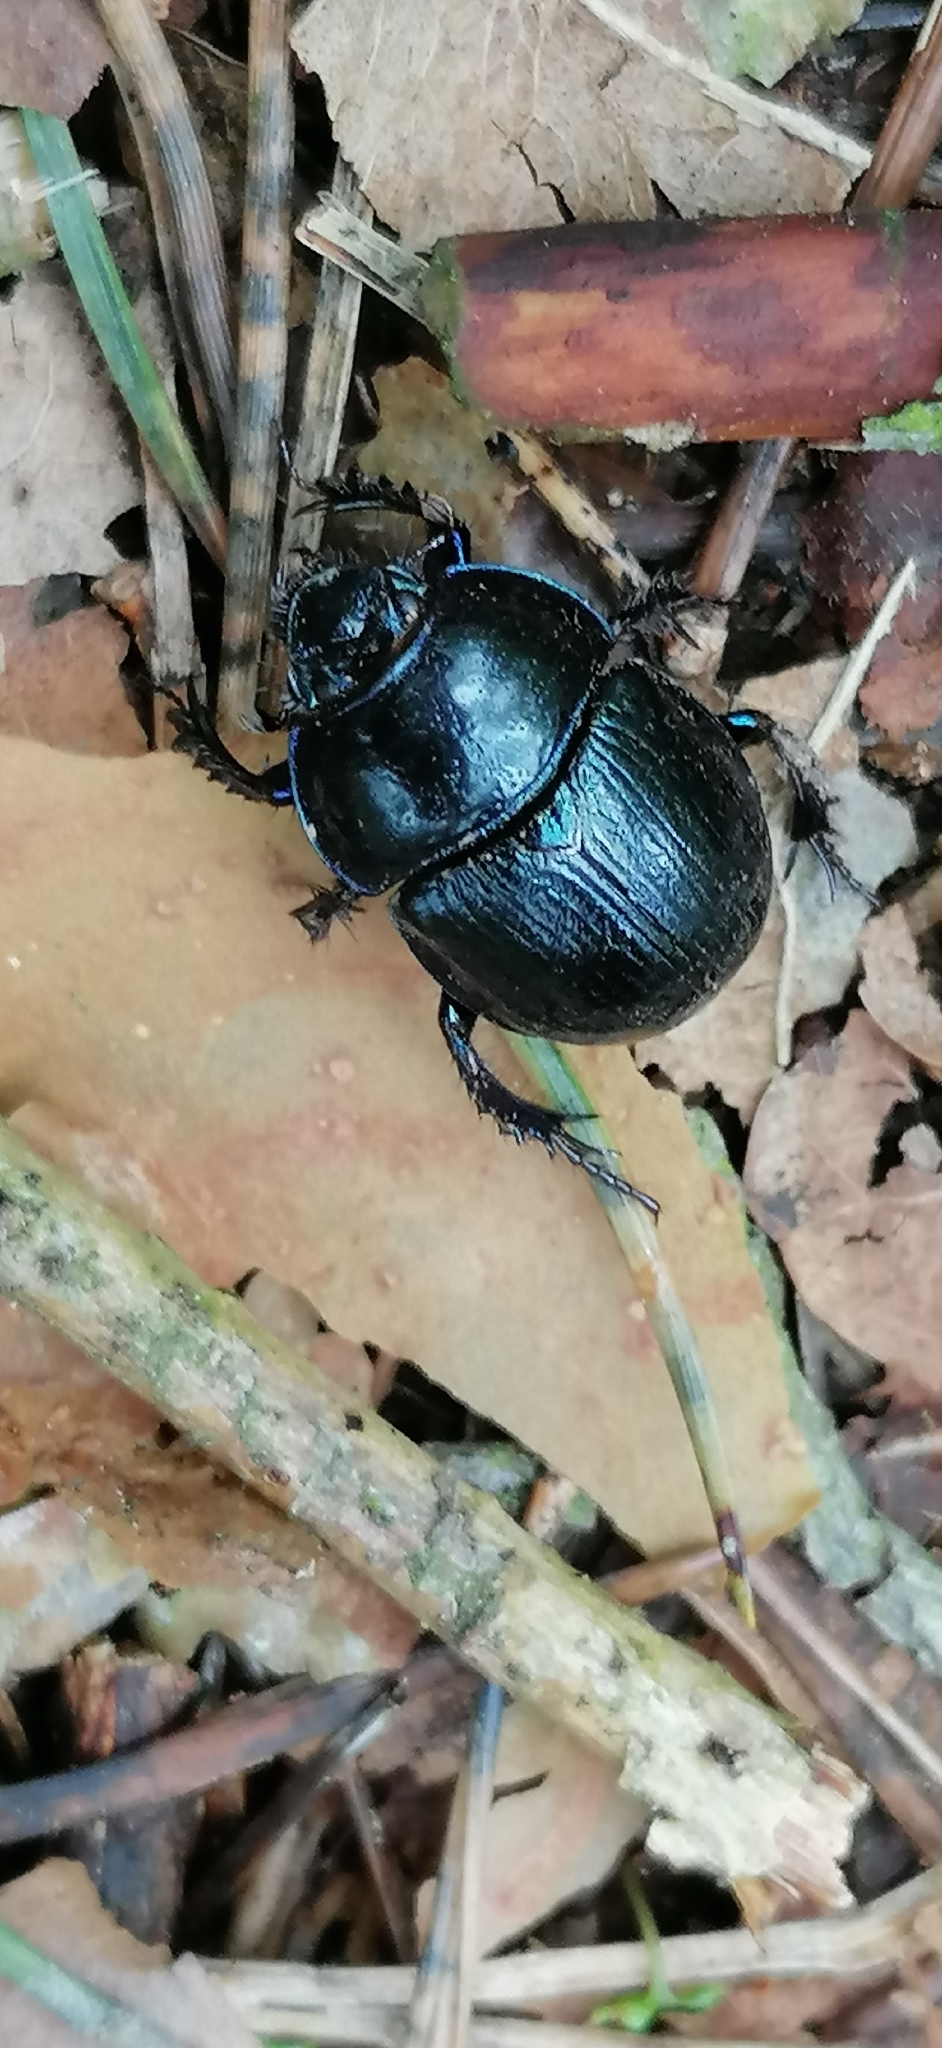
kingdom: Animalia
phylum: Arthropoda
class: Insecta
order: Coleoptera
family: Geotrupidae
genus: Anoplotrupes
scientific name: Anoplotrupes stercorosus
